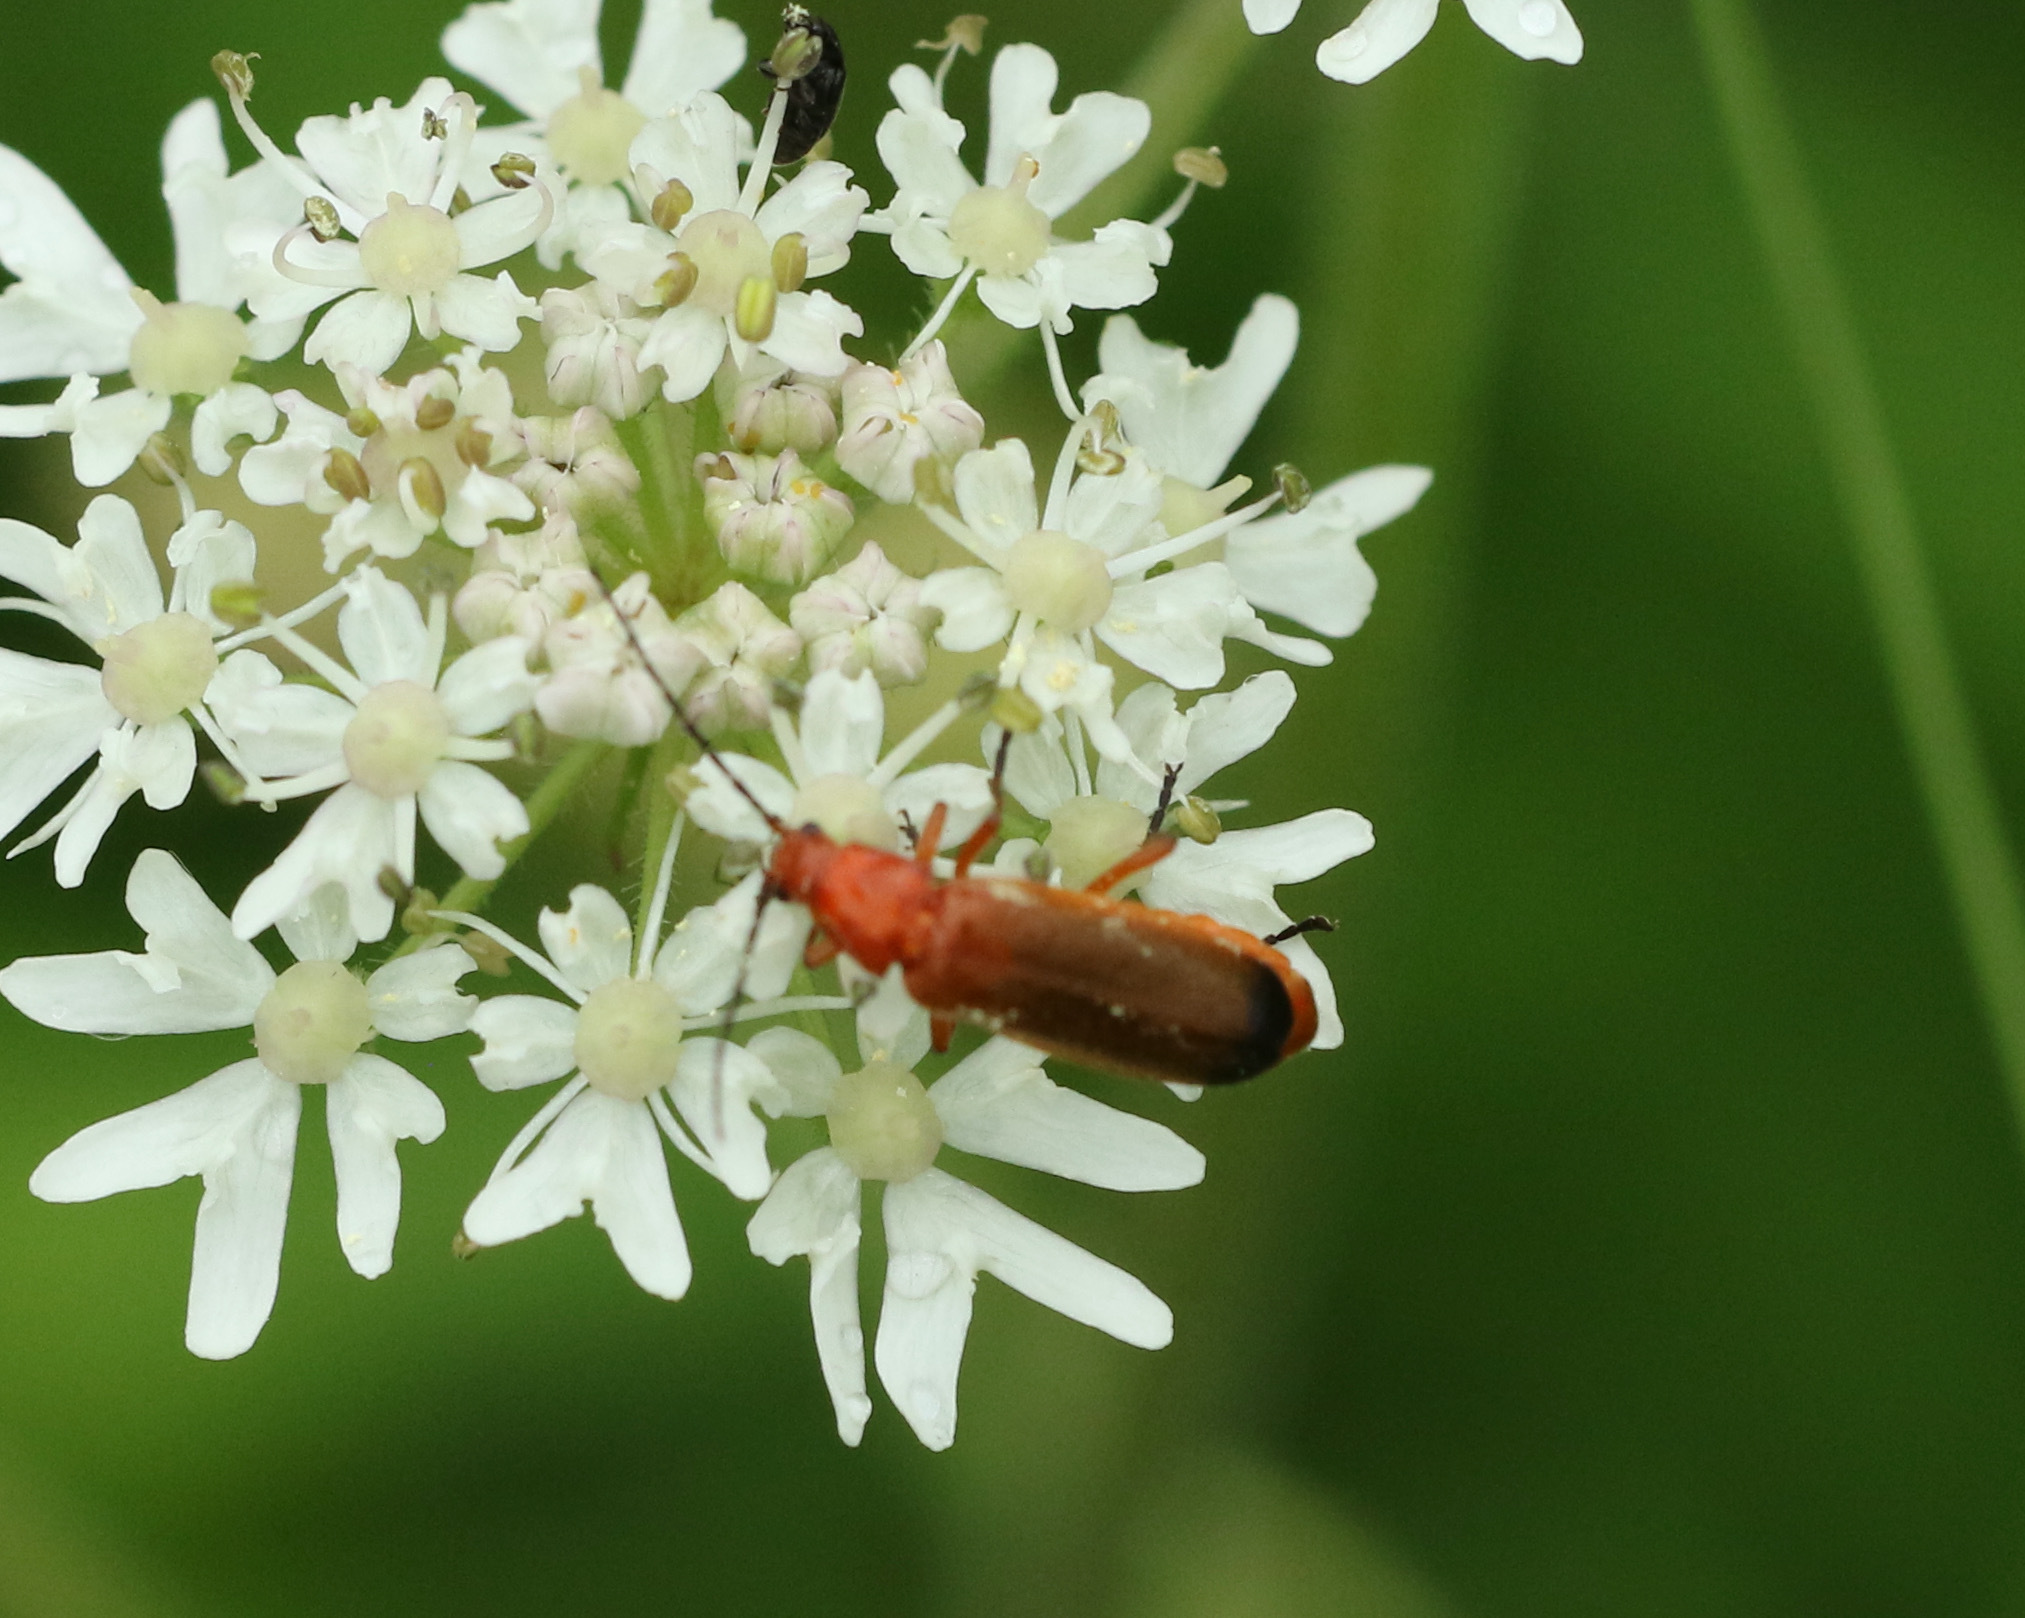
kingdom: Animalia
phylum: Arthropoda
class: Insecta
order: Coleoptera
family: Cantharidae
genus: Rhagonycha
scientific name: Rhagonycha fulva
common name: Common red soldier beetle
